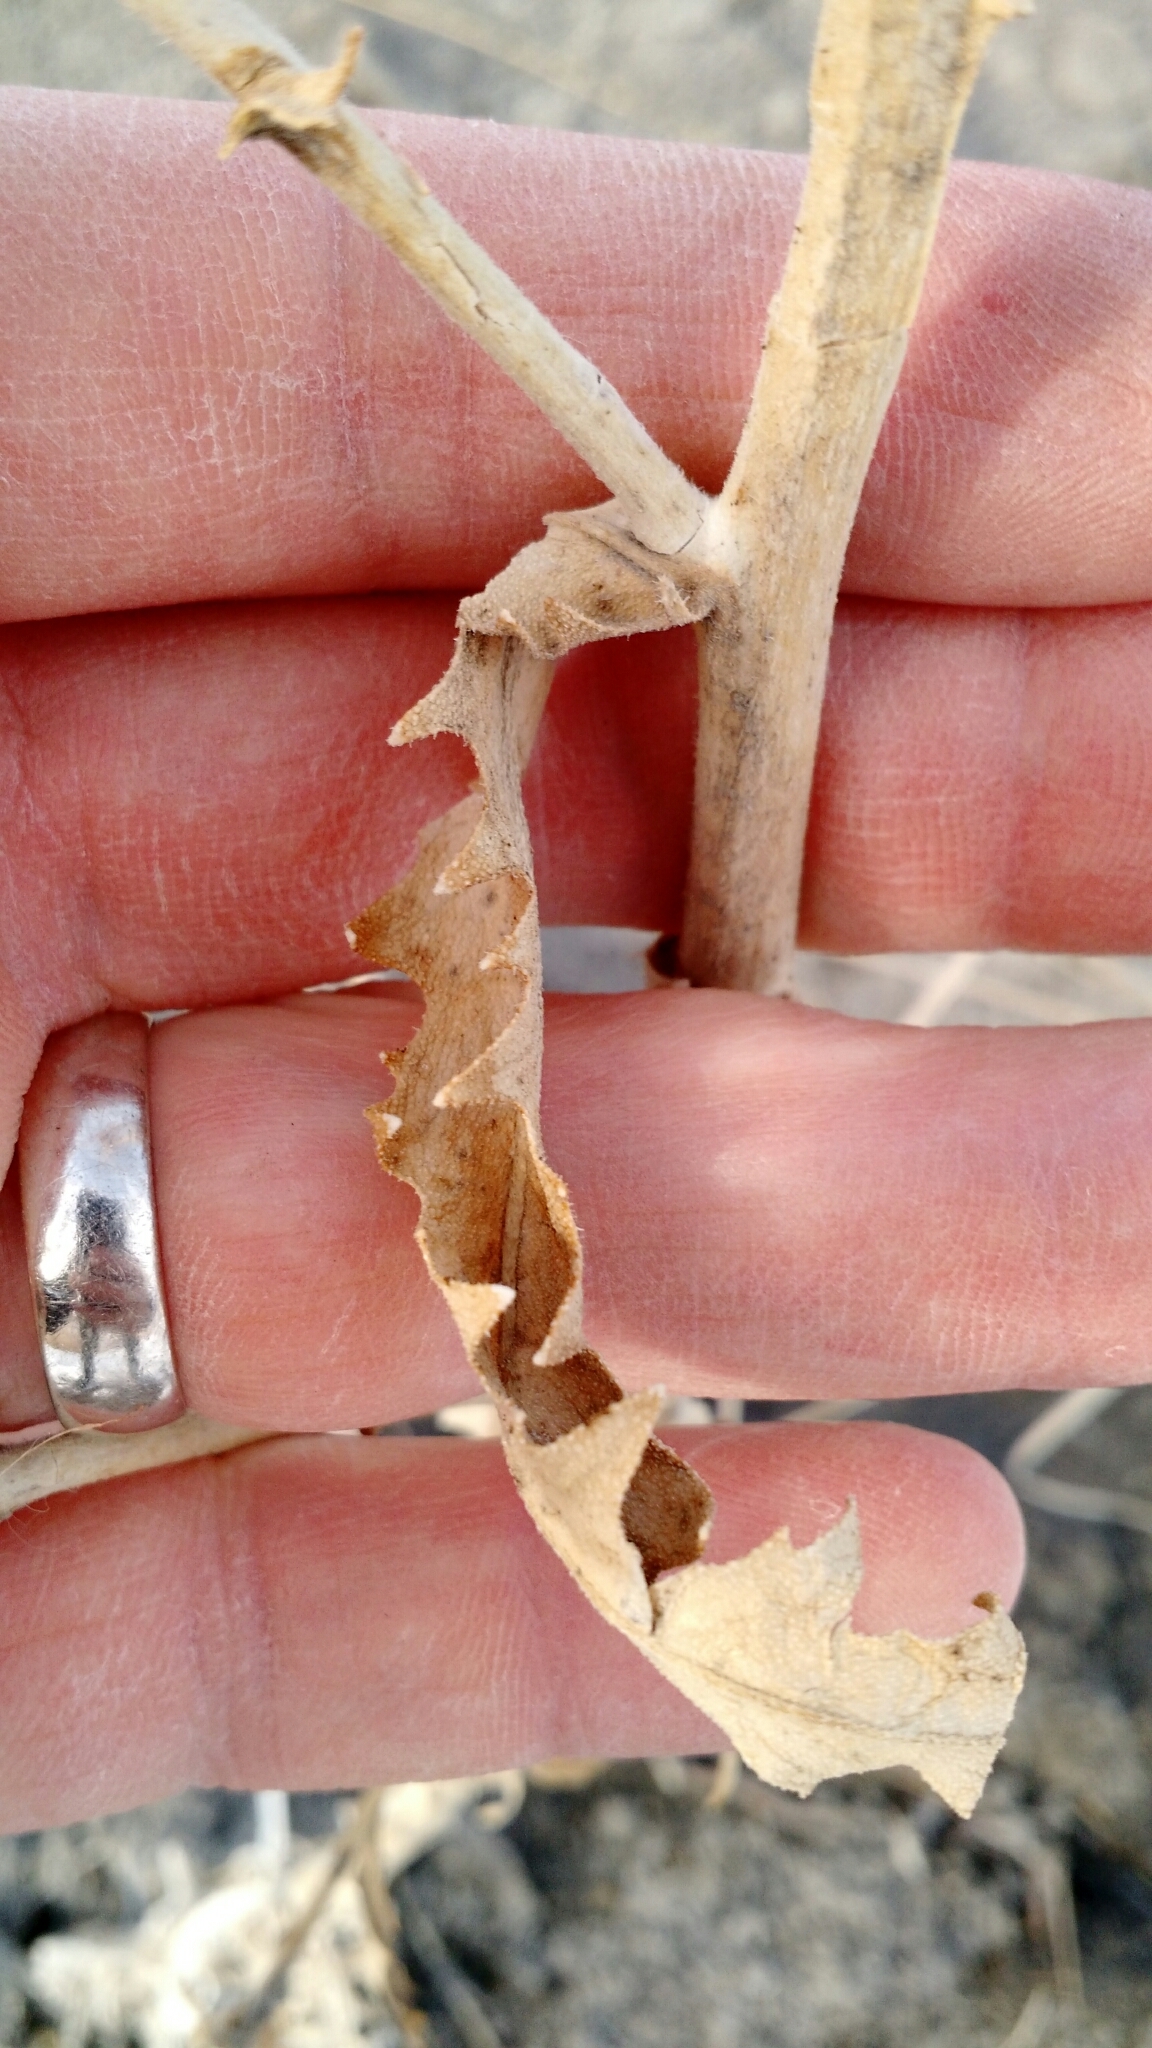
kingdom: Plantae
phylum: Tracheophyta
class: Magnoliopsida
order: Cornales
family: Loasaceae
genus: Mentzelia
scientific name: Mentzelia decapetala
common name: Gumbo-lily
